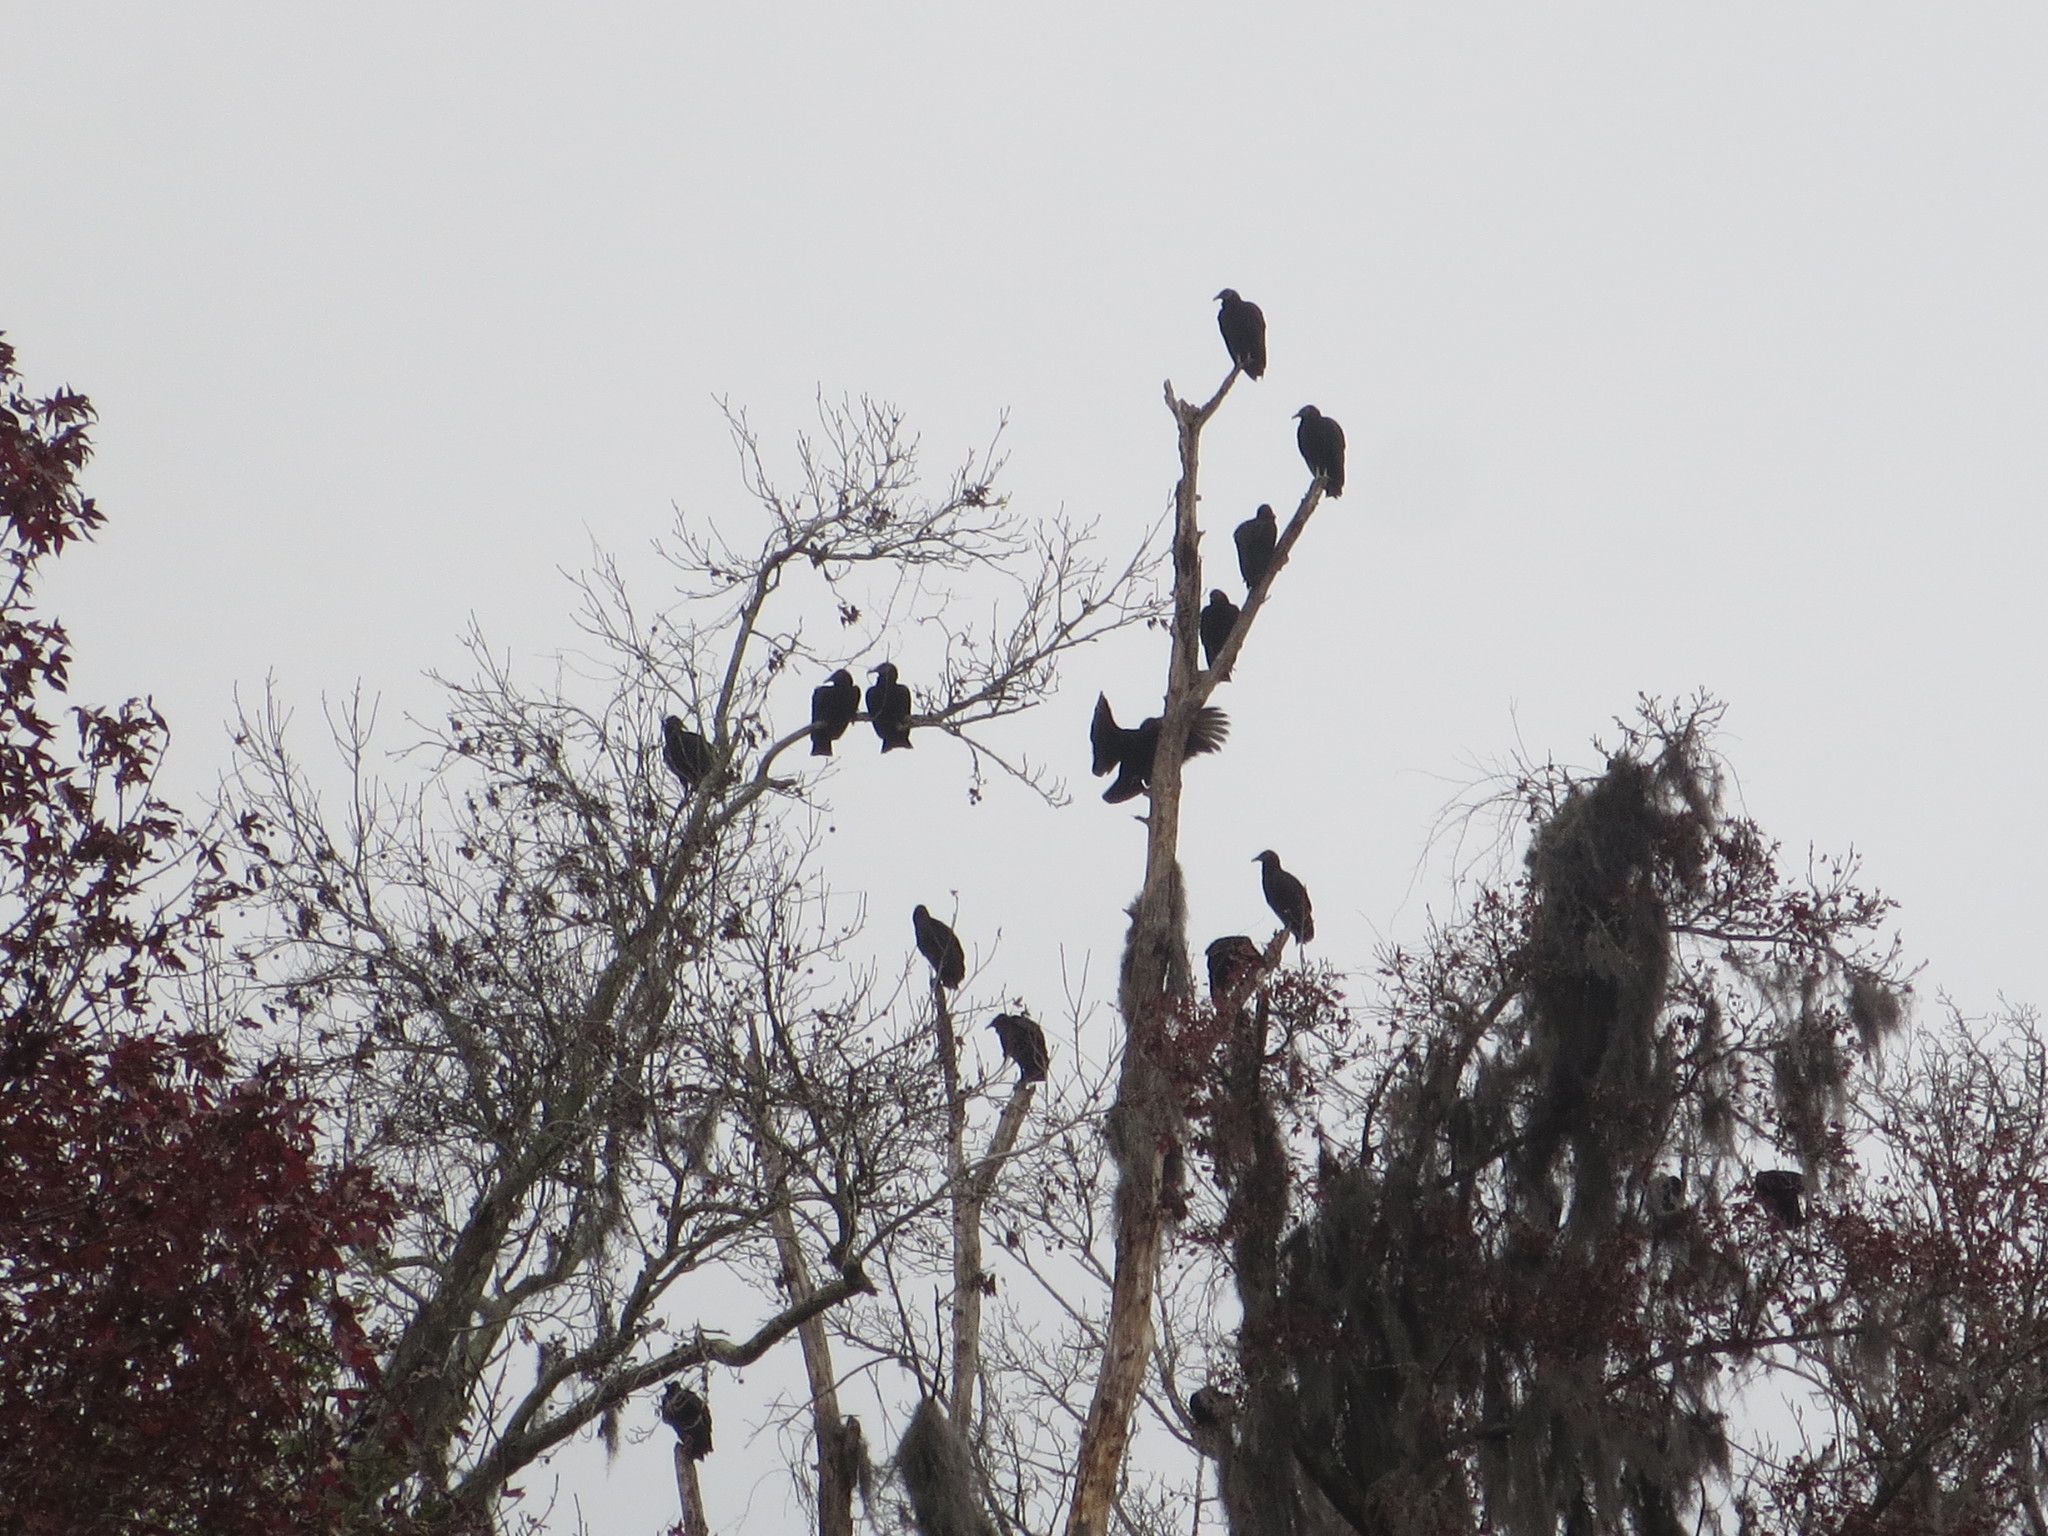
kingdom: Animalia
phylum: Chordata
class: Aves
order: Accipitriformes
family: Cathartidae
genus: Coragyps
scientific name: Coragyps atratus
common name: Black vulture
